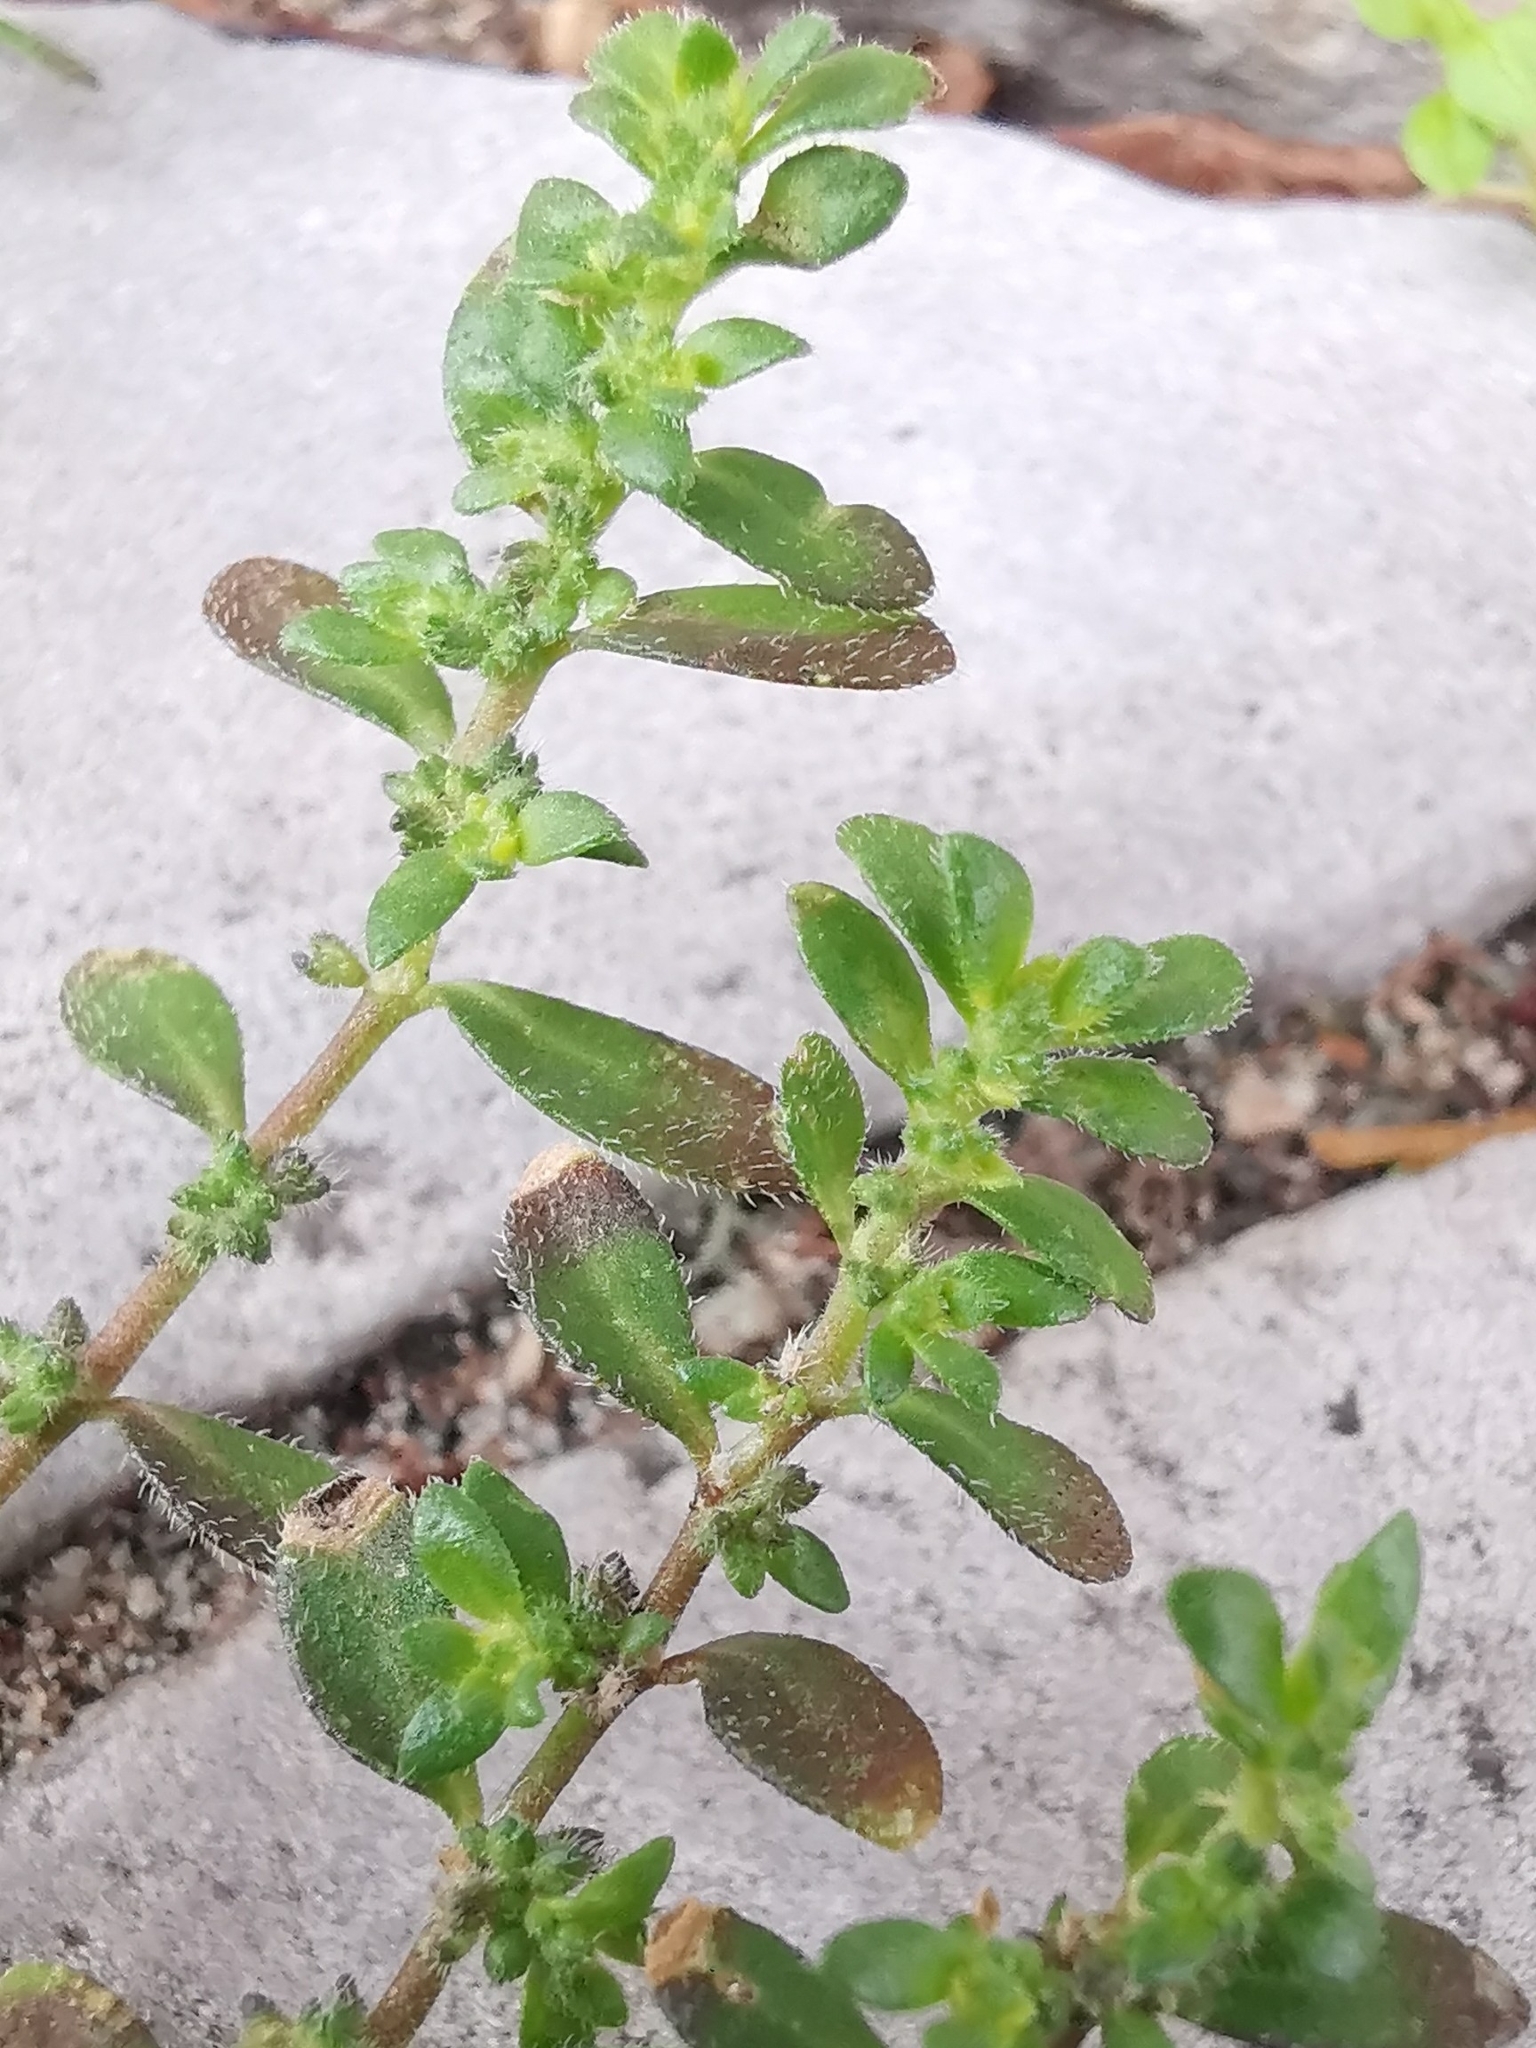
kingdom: Plantae
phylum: Tracheophyta
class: Magnoliopsida
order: Caryophyllales
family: Caryophyllaceae
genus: Herniaria
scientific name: Herniaria hirsuta
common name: Hairy rupturewort
